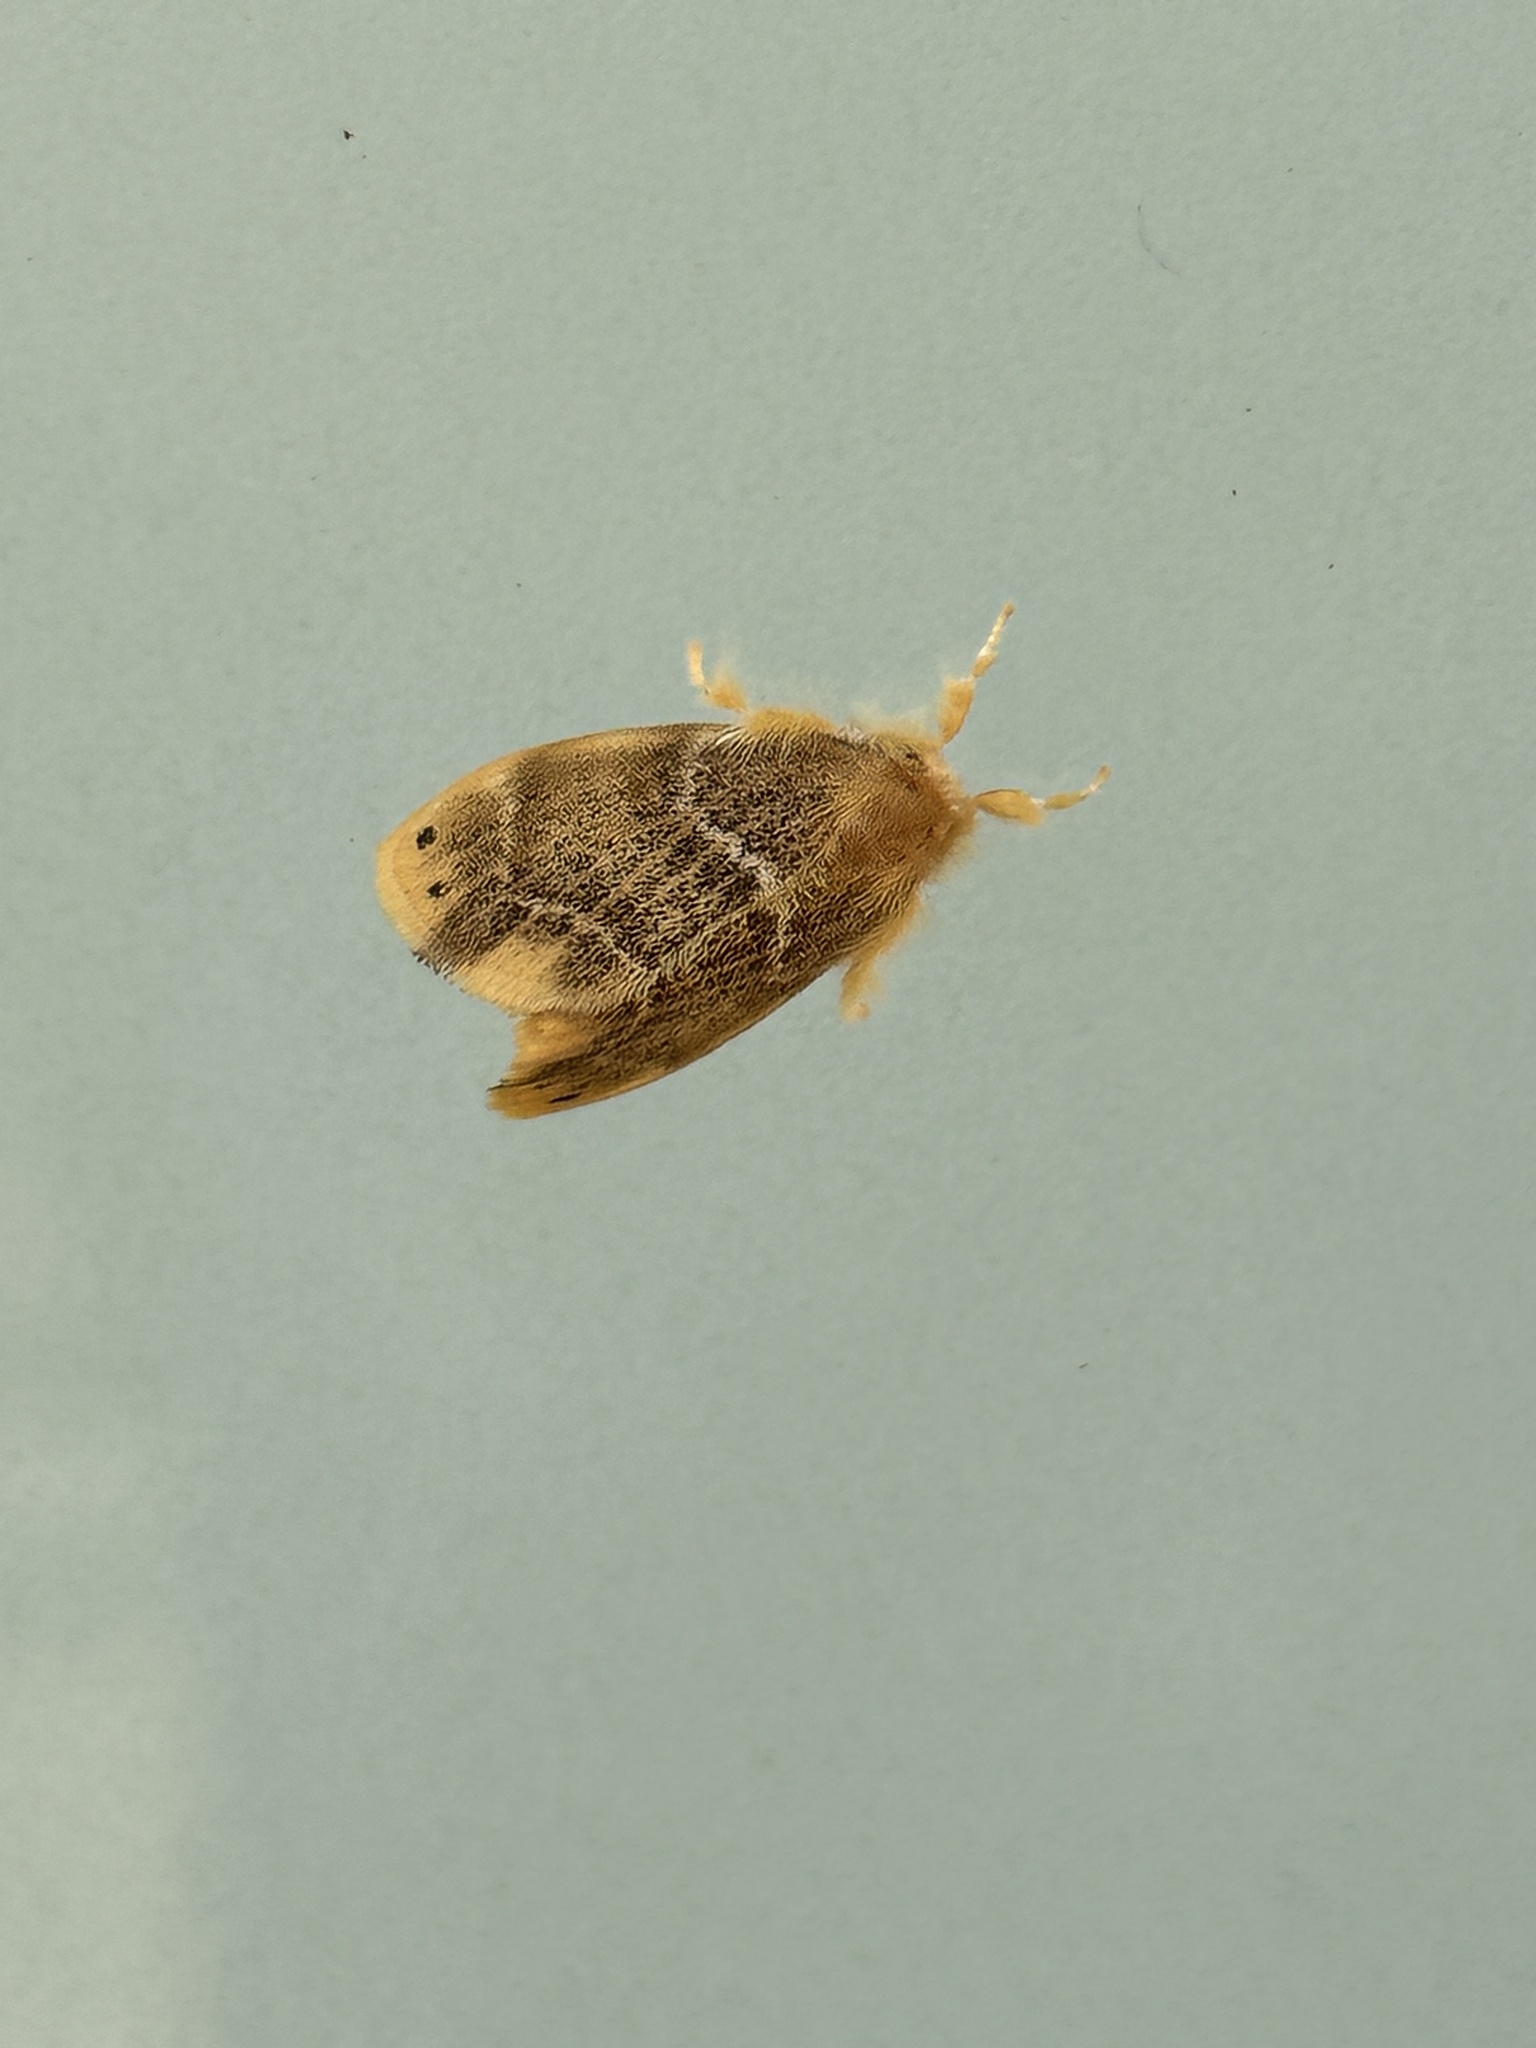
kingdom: Animalia
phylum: Arthropoda
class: Insecta
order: Lepidoptera
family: Erebidae
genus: Euproctis
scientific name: Euproctis pseudoconspersa
